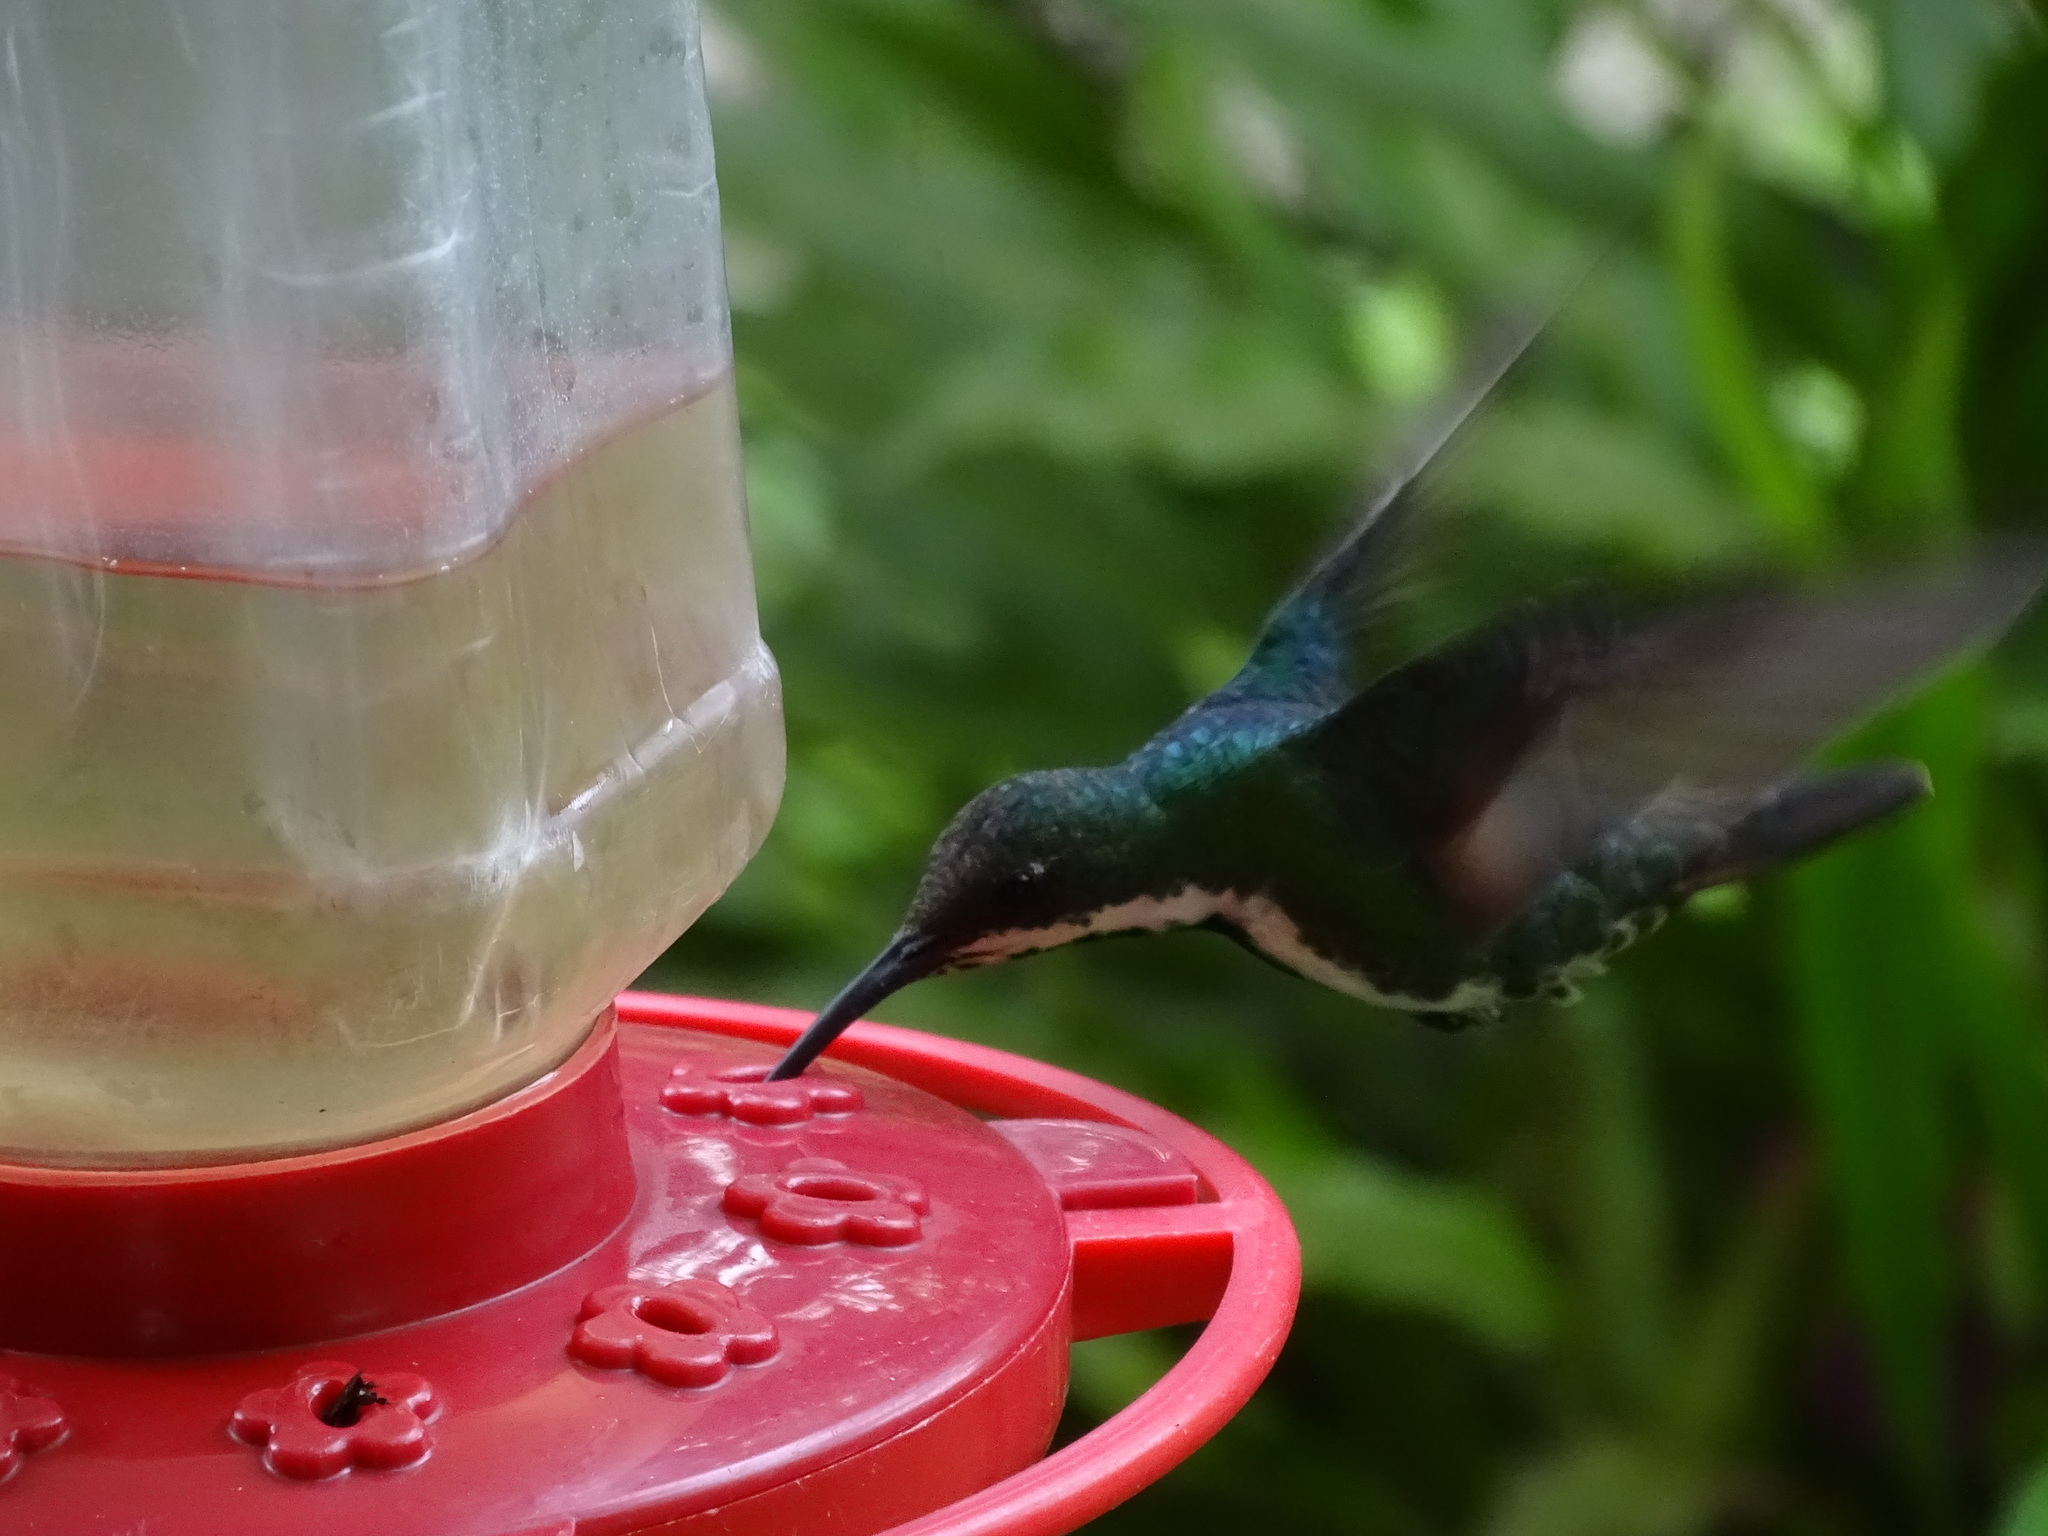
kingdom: Animalia
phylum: Chordata
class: Aves
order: Apodiformes
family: Trochilidae
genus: Anthracothorax
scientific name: Anthracothorax nigricollis
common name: Black-throated mango
